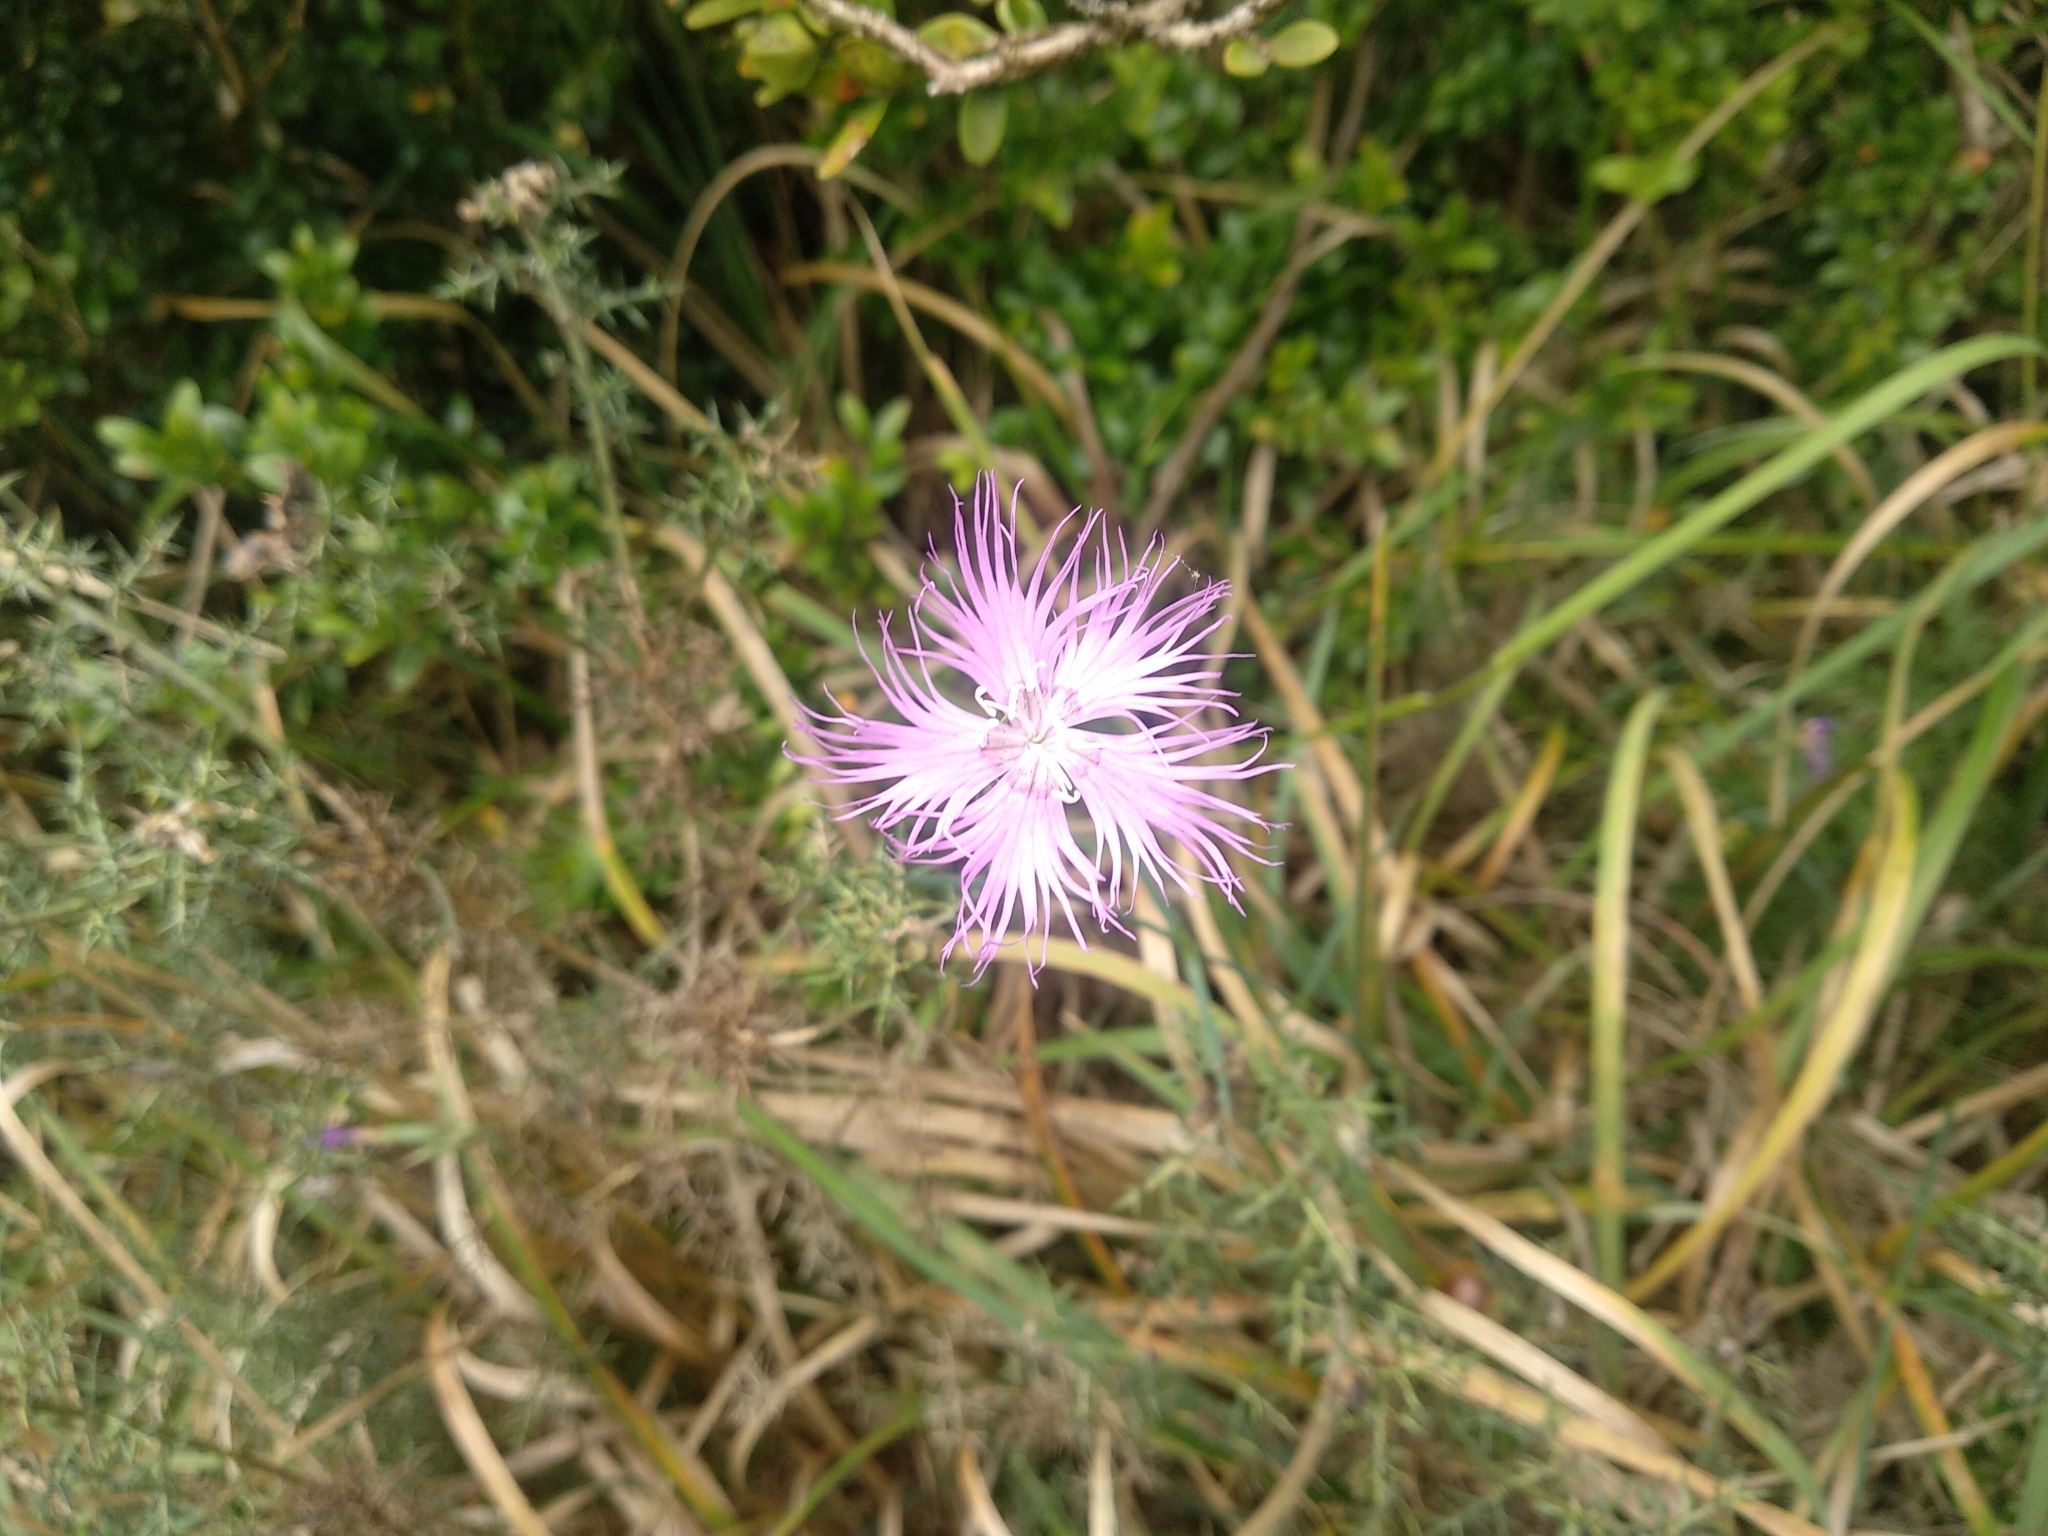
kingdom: Plantae
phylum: Tracheophyta
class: Magnoliopsida
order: Caryophyllales
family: Caryophyllaceae
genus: Dianthus
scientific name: Dianthus hyssopifolius
